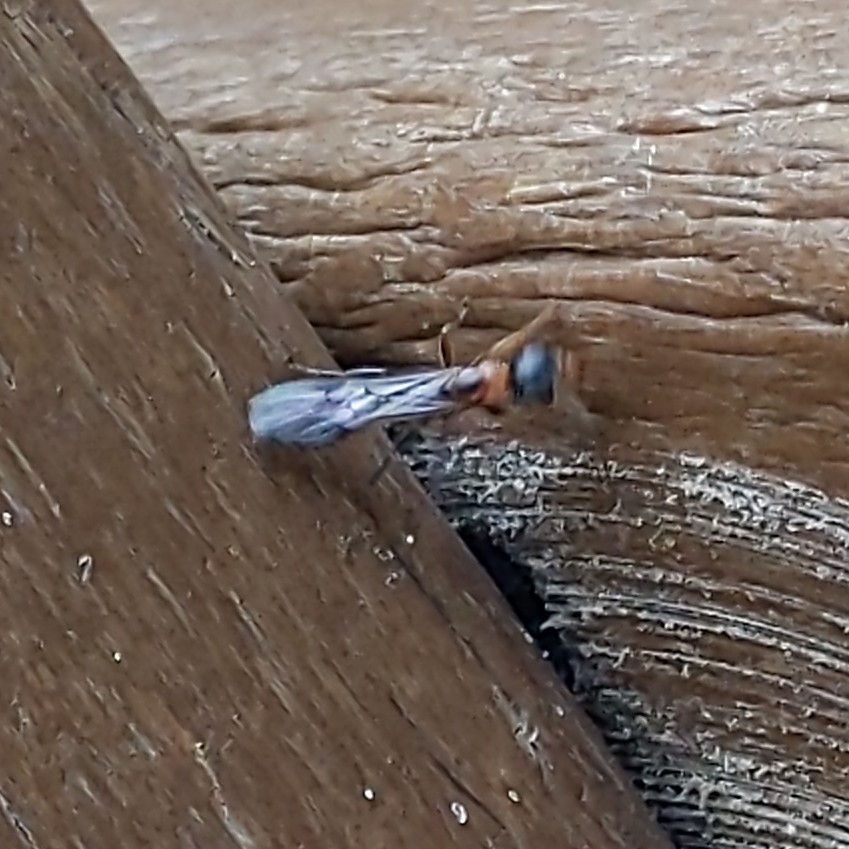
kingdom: Animalia
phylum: Arthropoda
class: Insecta
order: Hymenoptera
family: Formicidae
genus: Pseudomyrmex
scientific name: Pseudomyrmex gracilis
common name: Graceful twig ant
